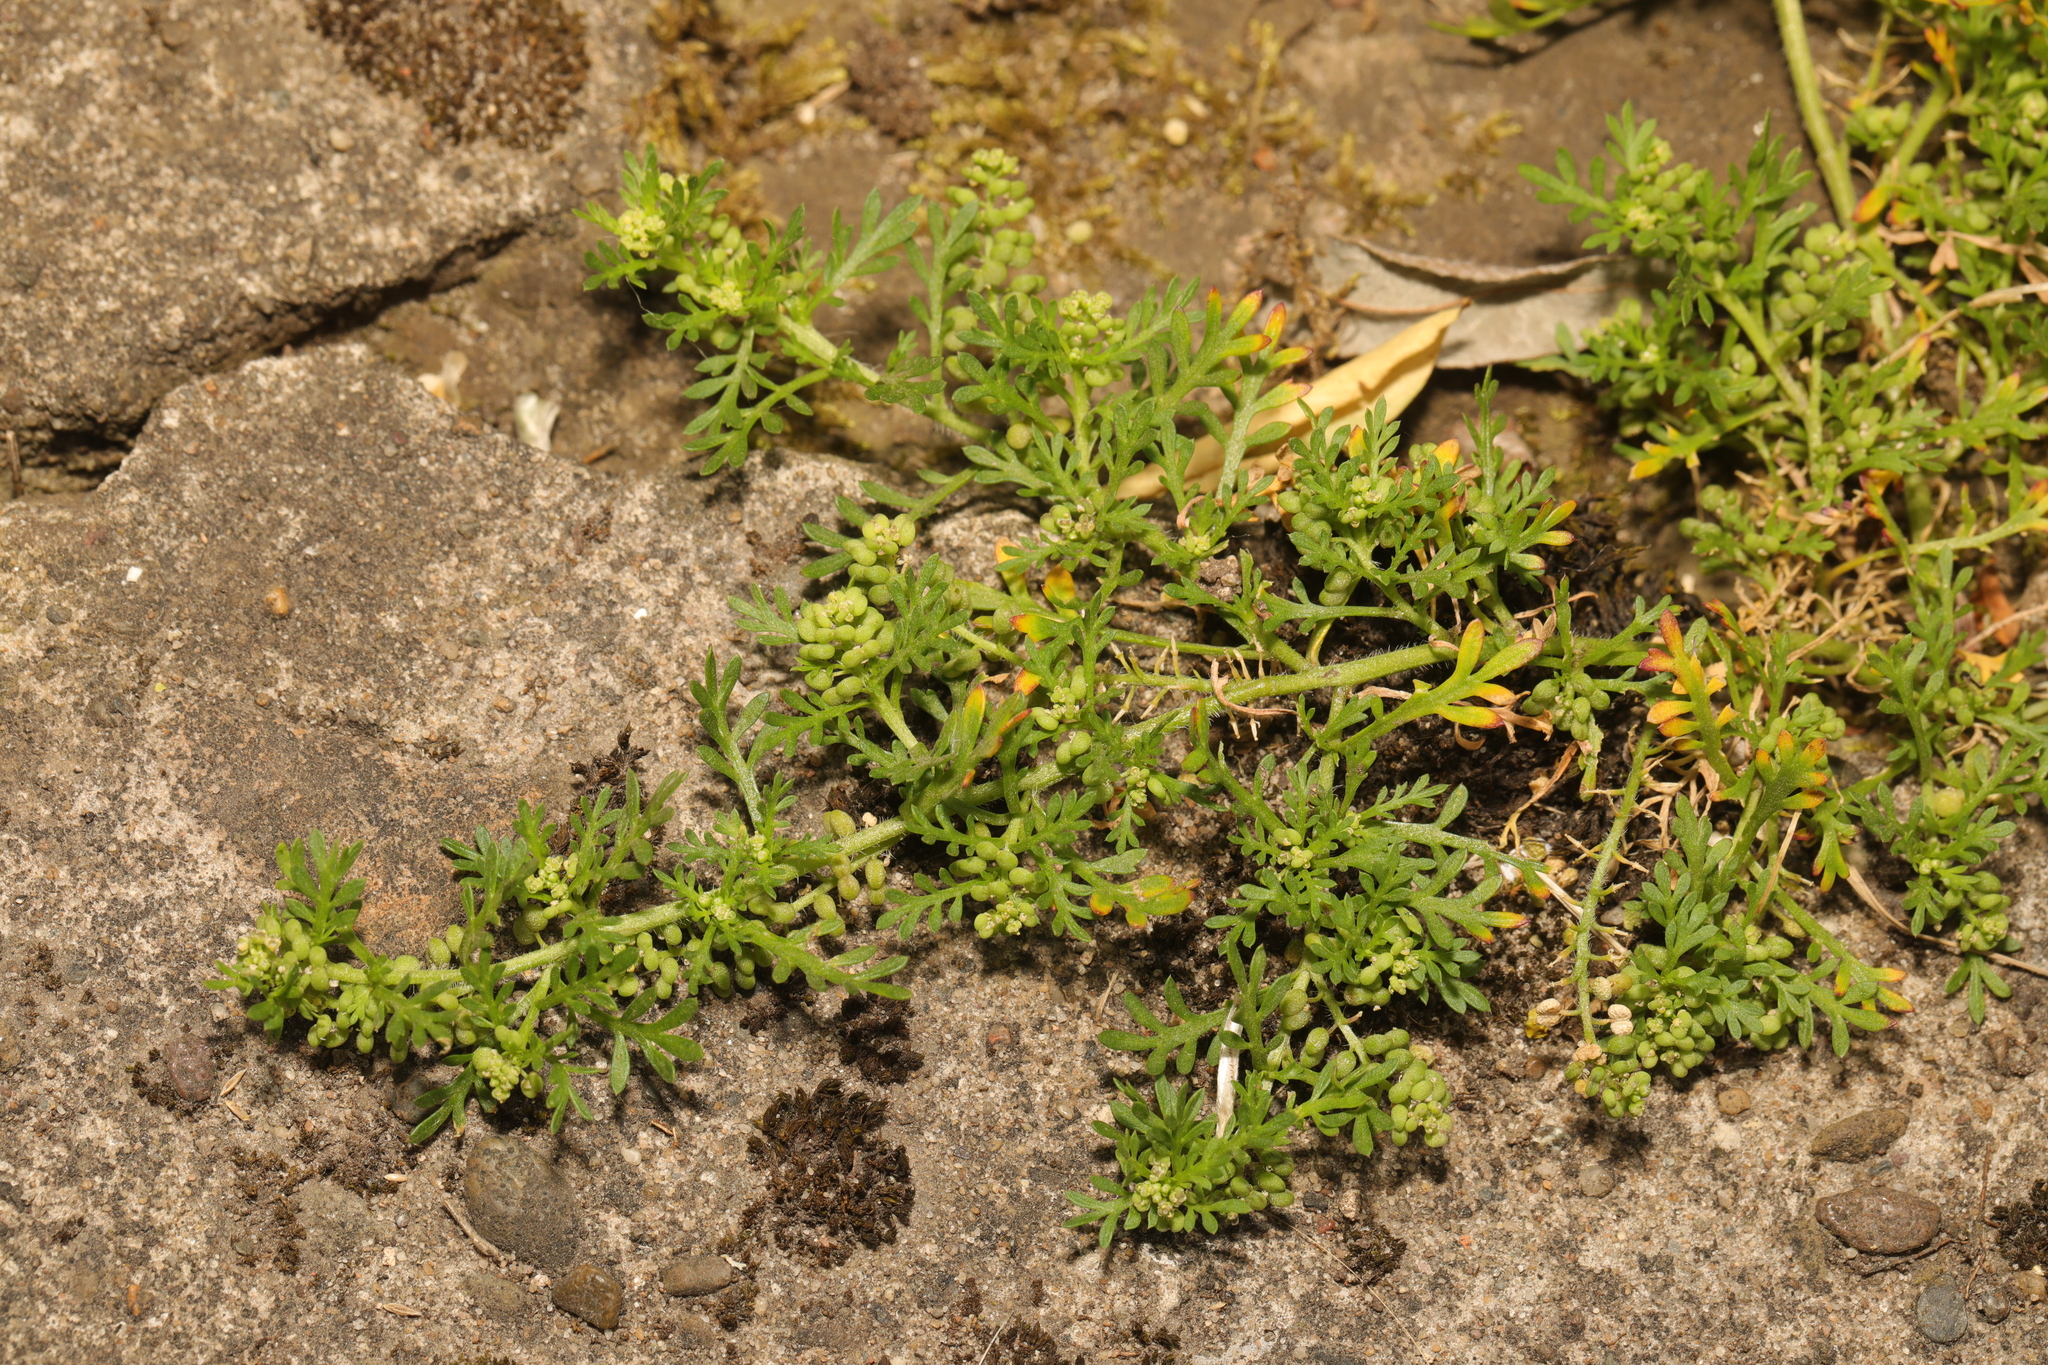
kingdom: Plantae
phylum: Tracheophyta
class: Magnoliopsida
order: Brassicales
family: Brassicaceae
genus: Lepidium
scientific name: Lepidium didymum
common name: Lesser swinecress
